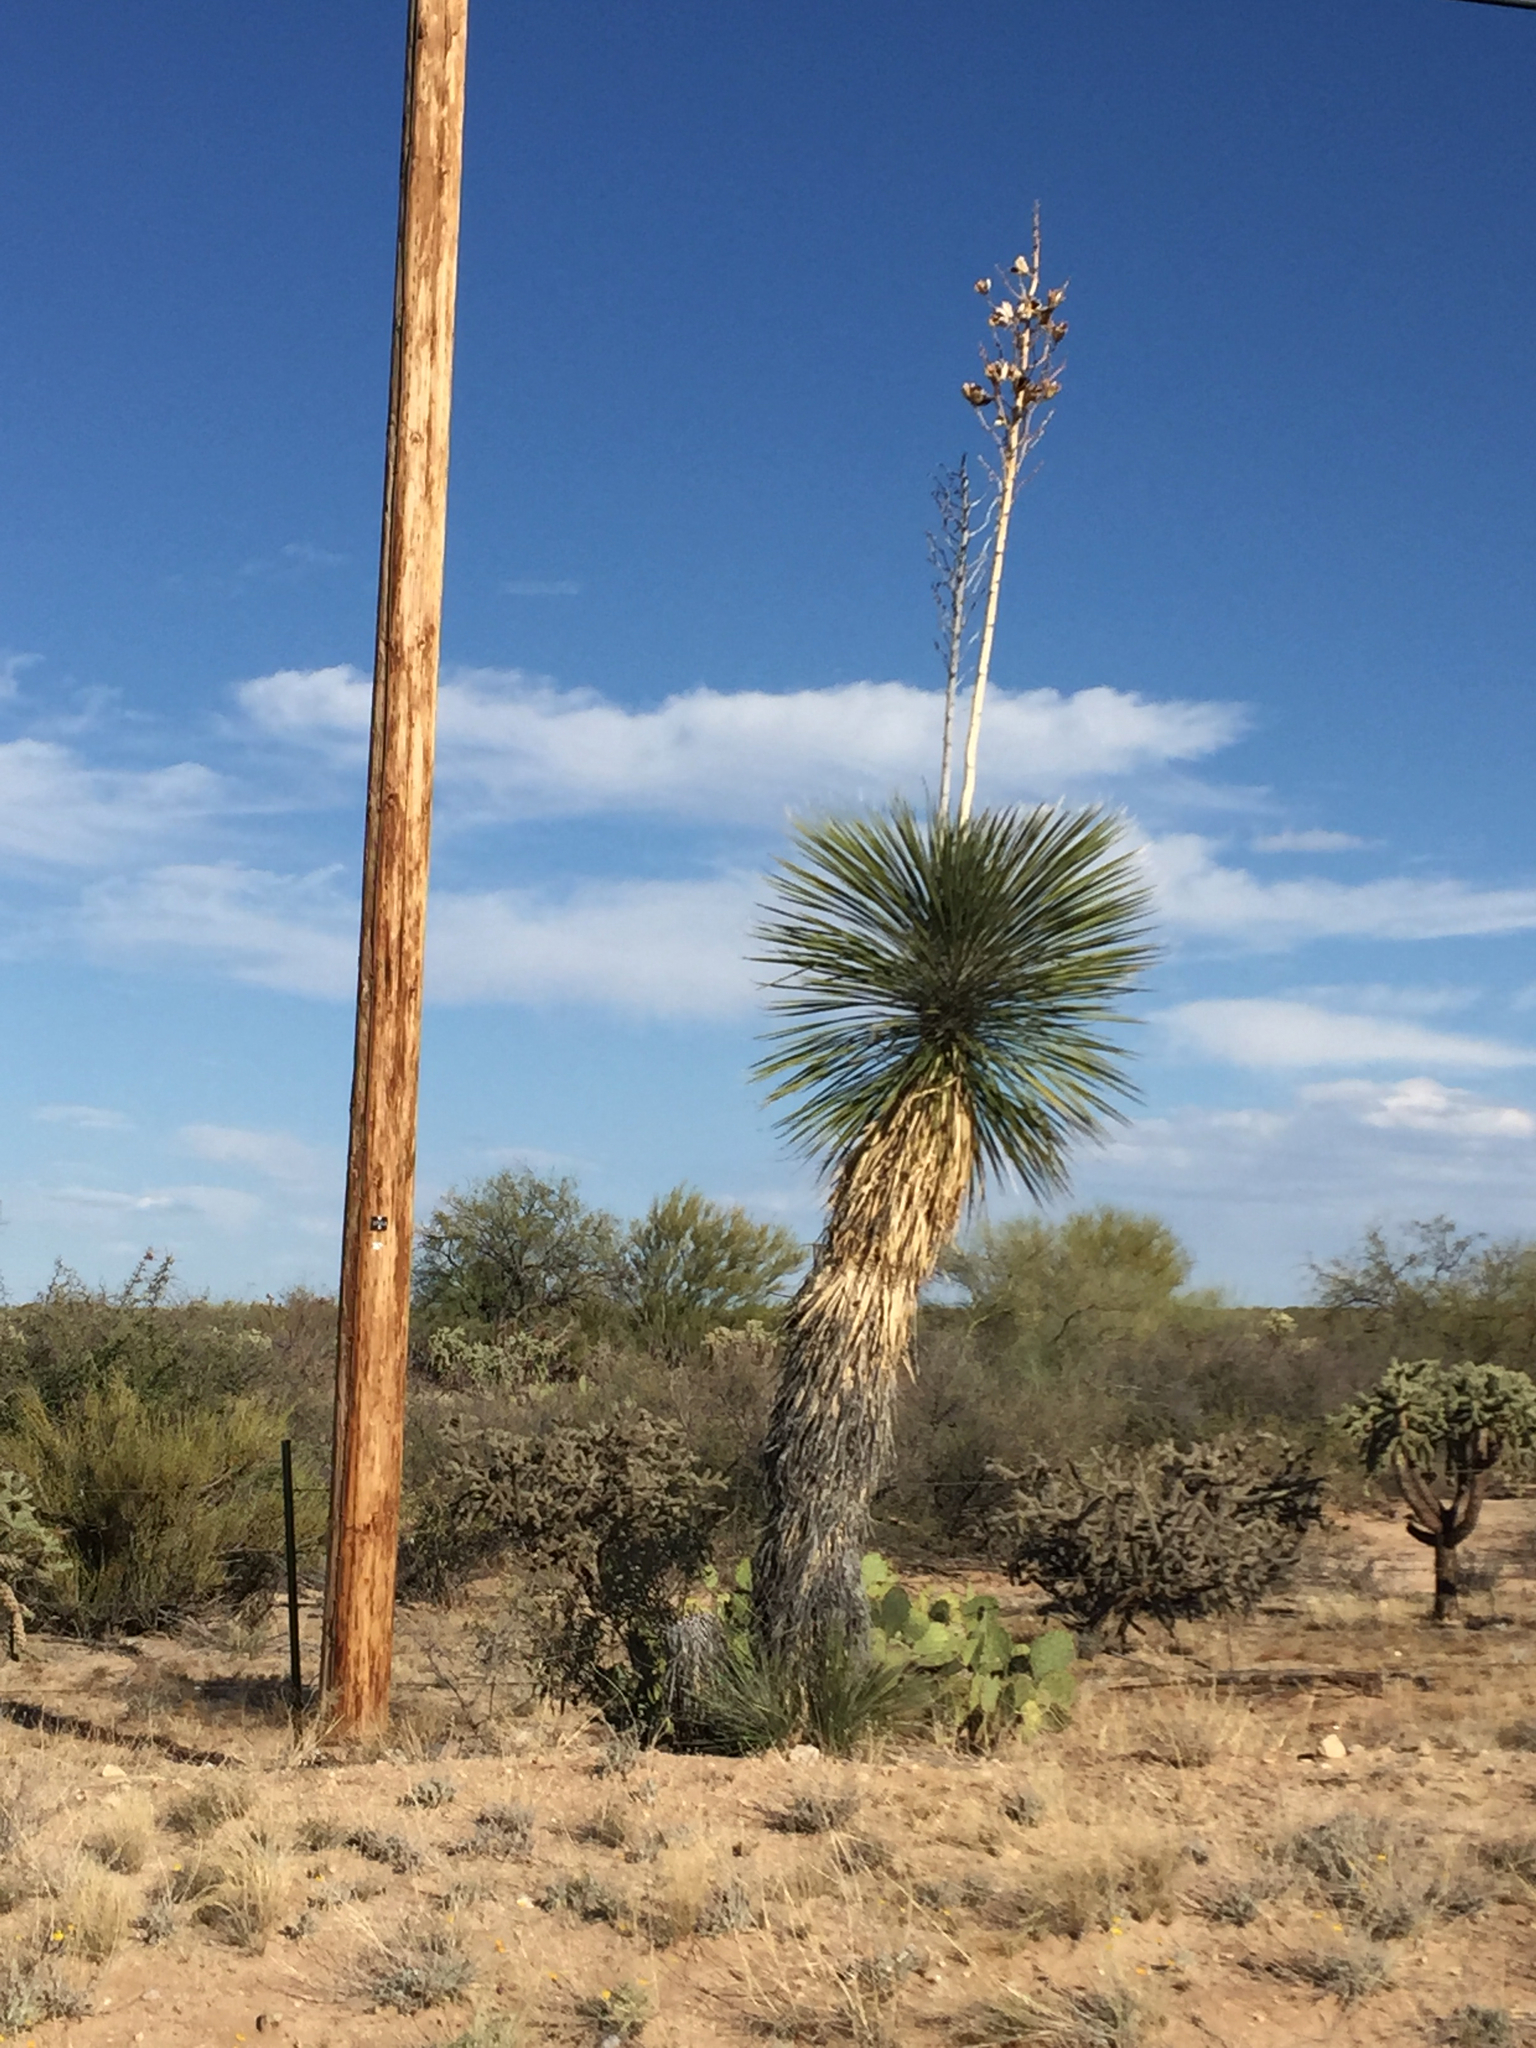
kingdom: Plantae
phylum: Tracheophyta
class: Liliopsida
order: Asparagales
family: Asparagaceae
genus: Yucca
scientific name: Yucca elata
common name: Palmella
